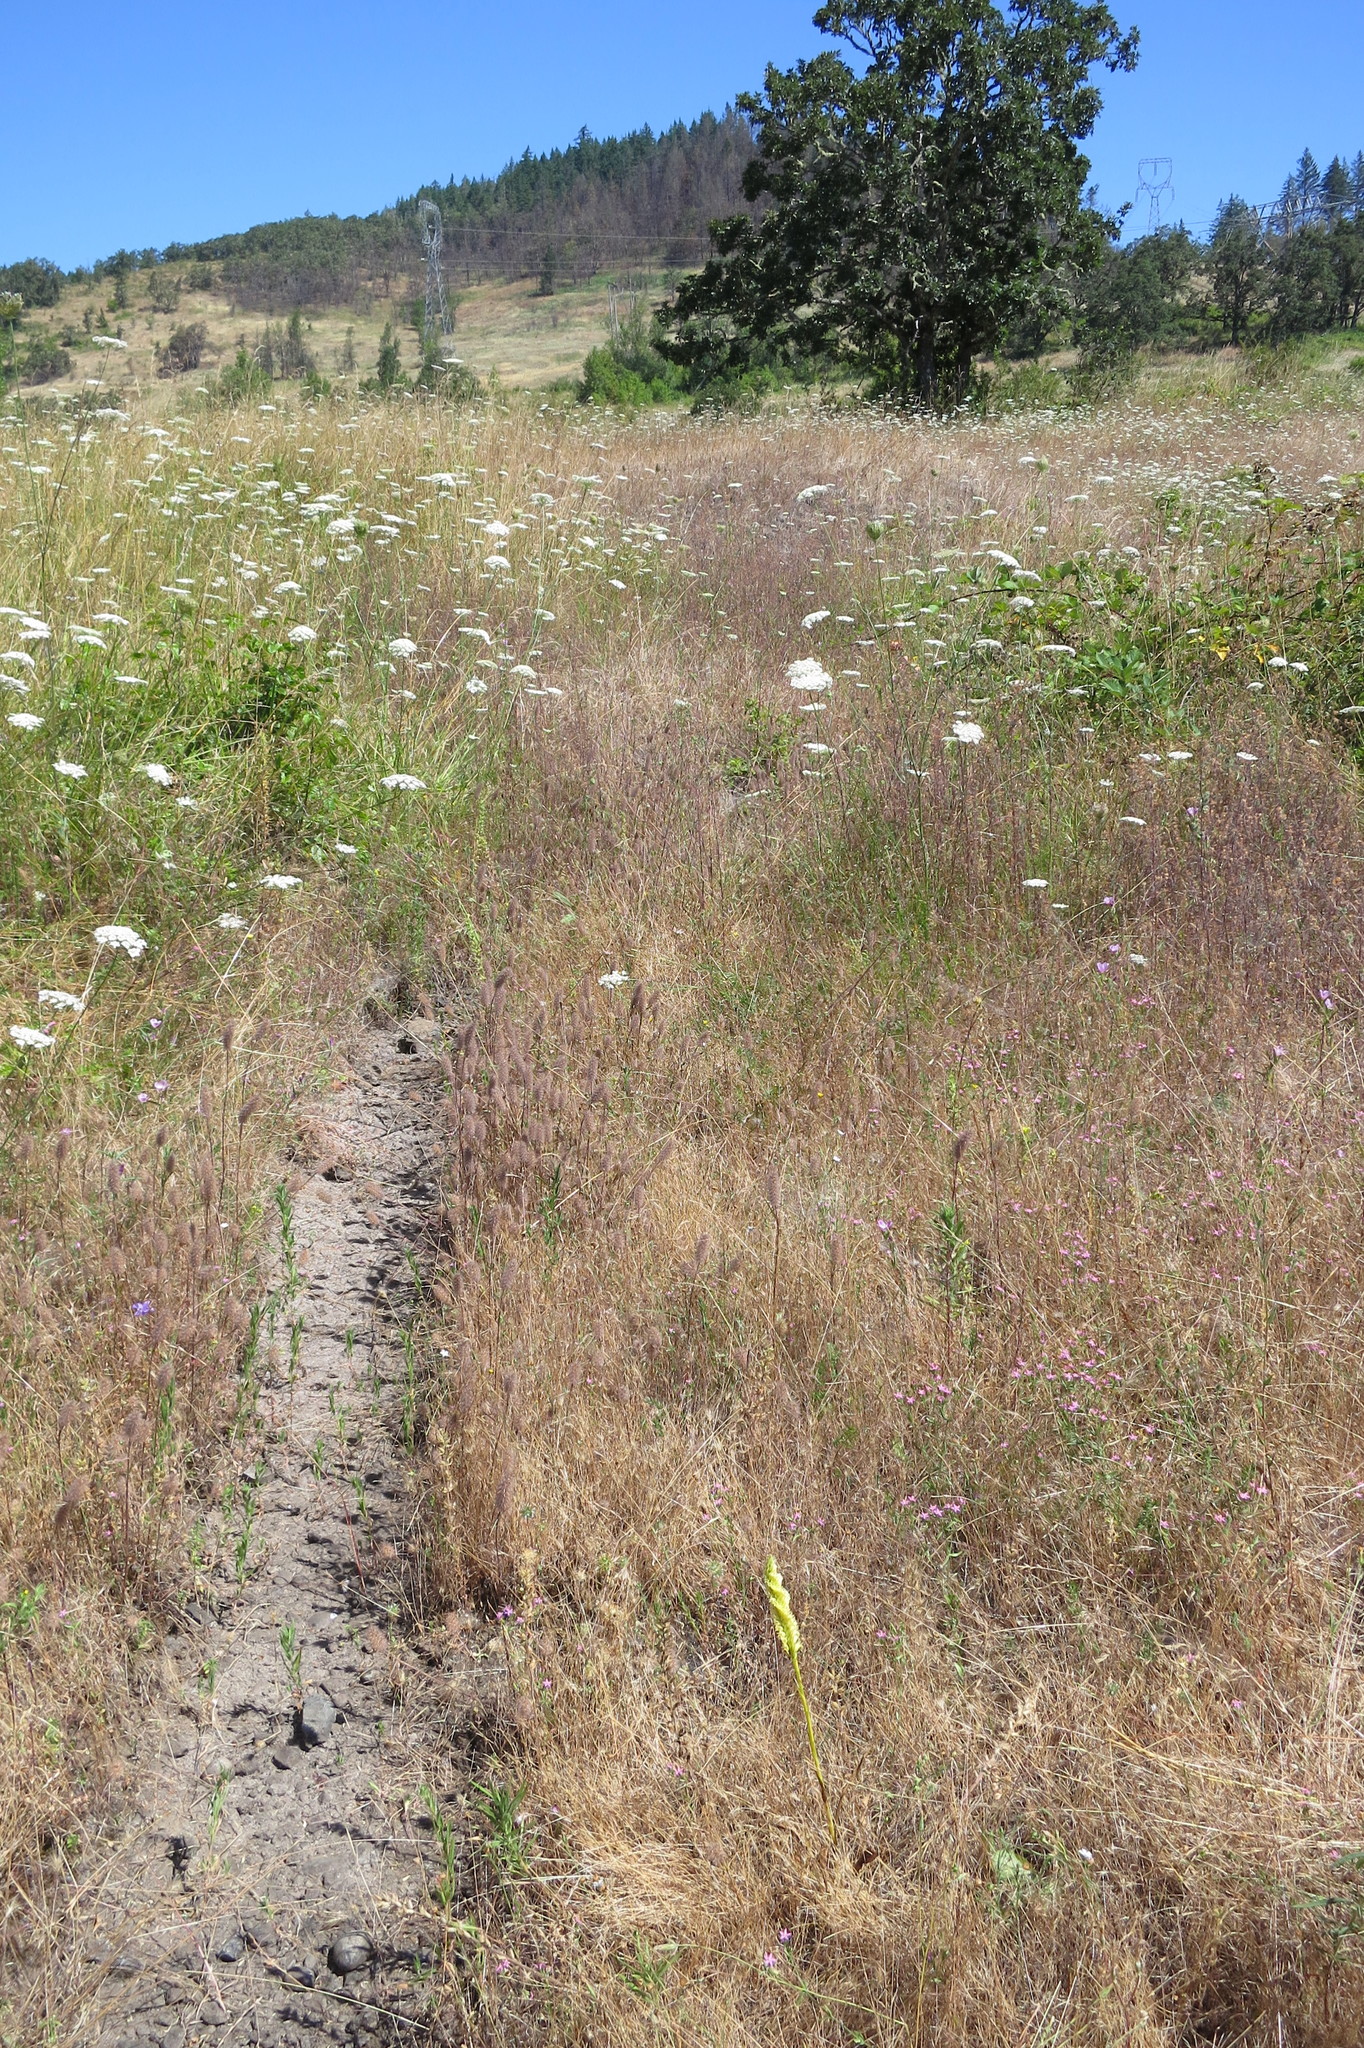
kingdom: Plantae
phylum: Tracheophyta
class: Liliopsida
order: Asparagales
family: Orchidaceae
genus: Spiranthes
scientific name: Spiranthes porrifolia
